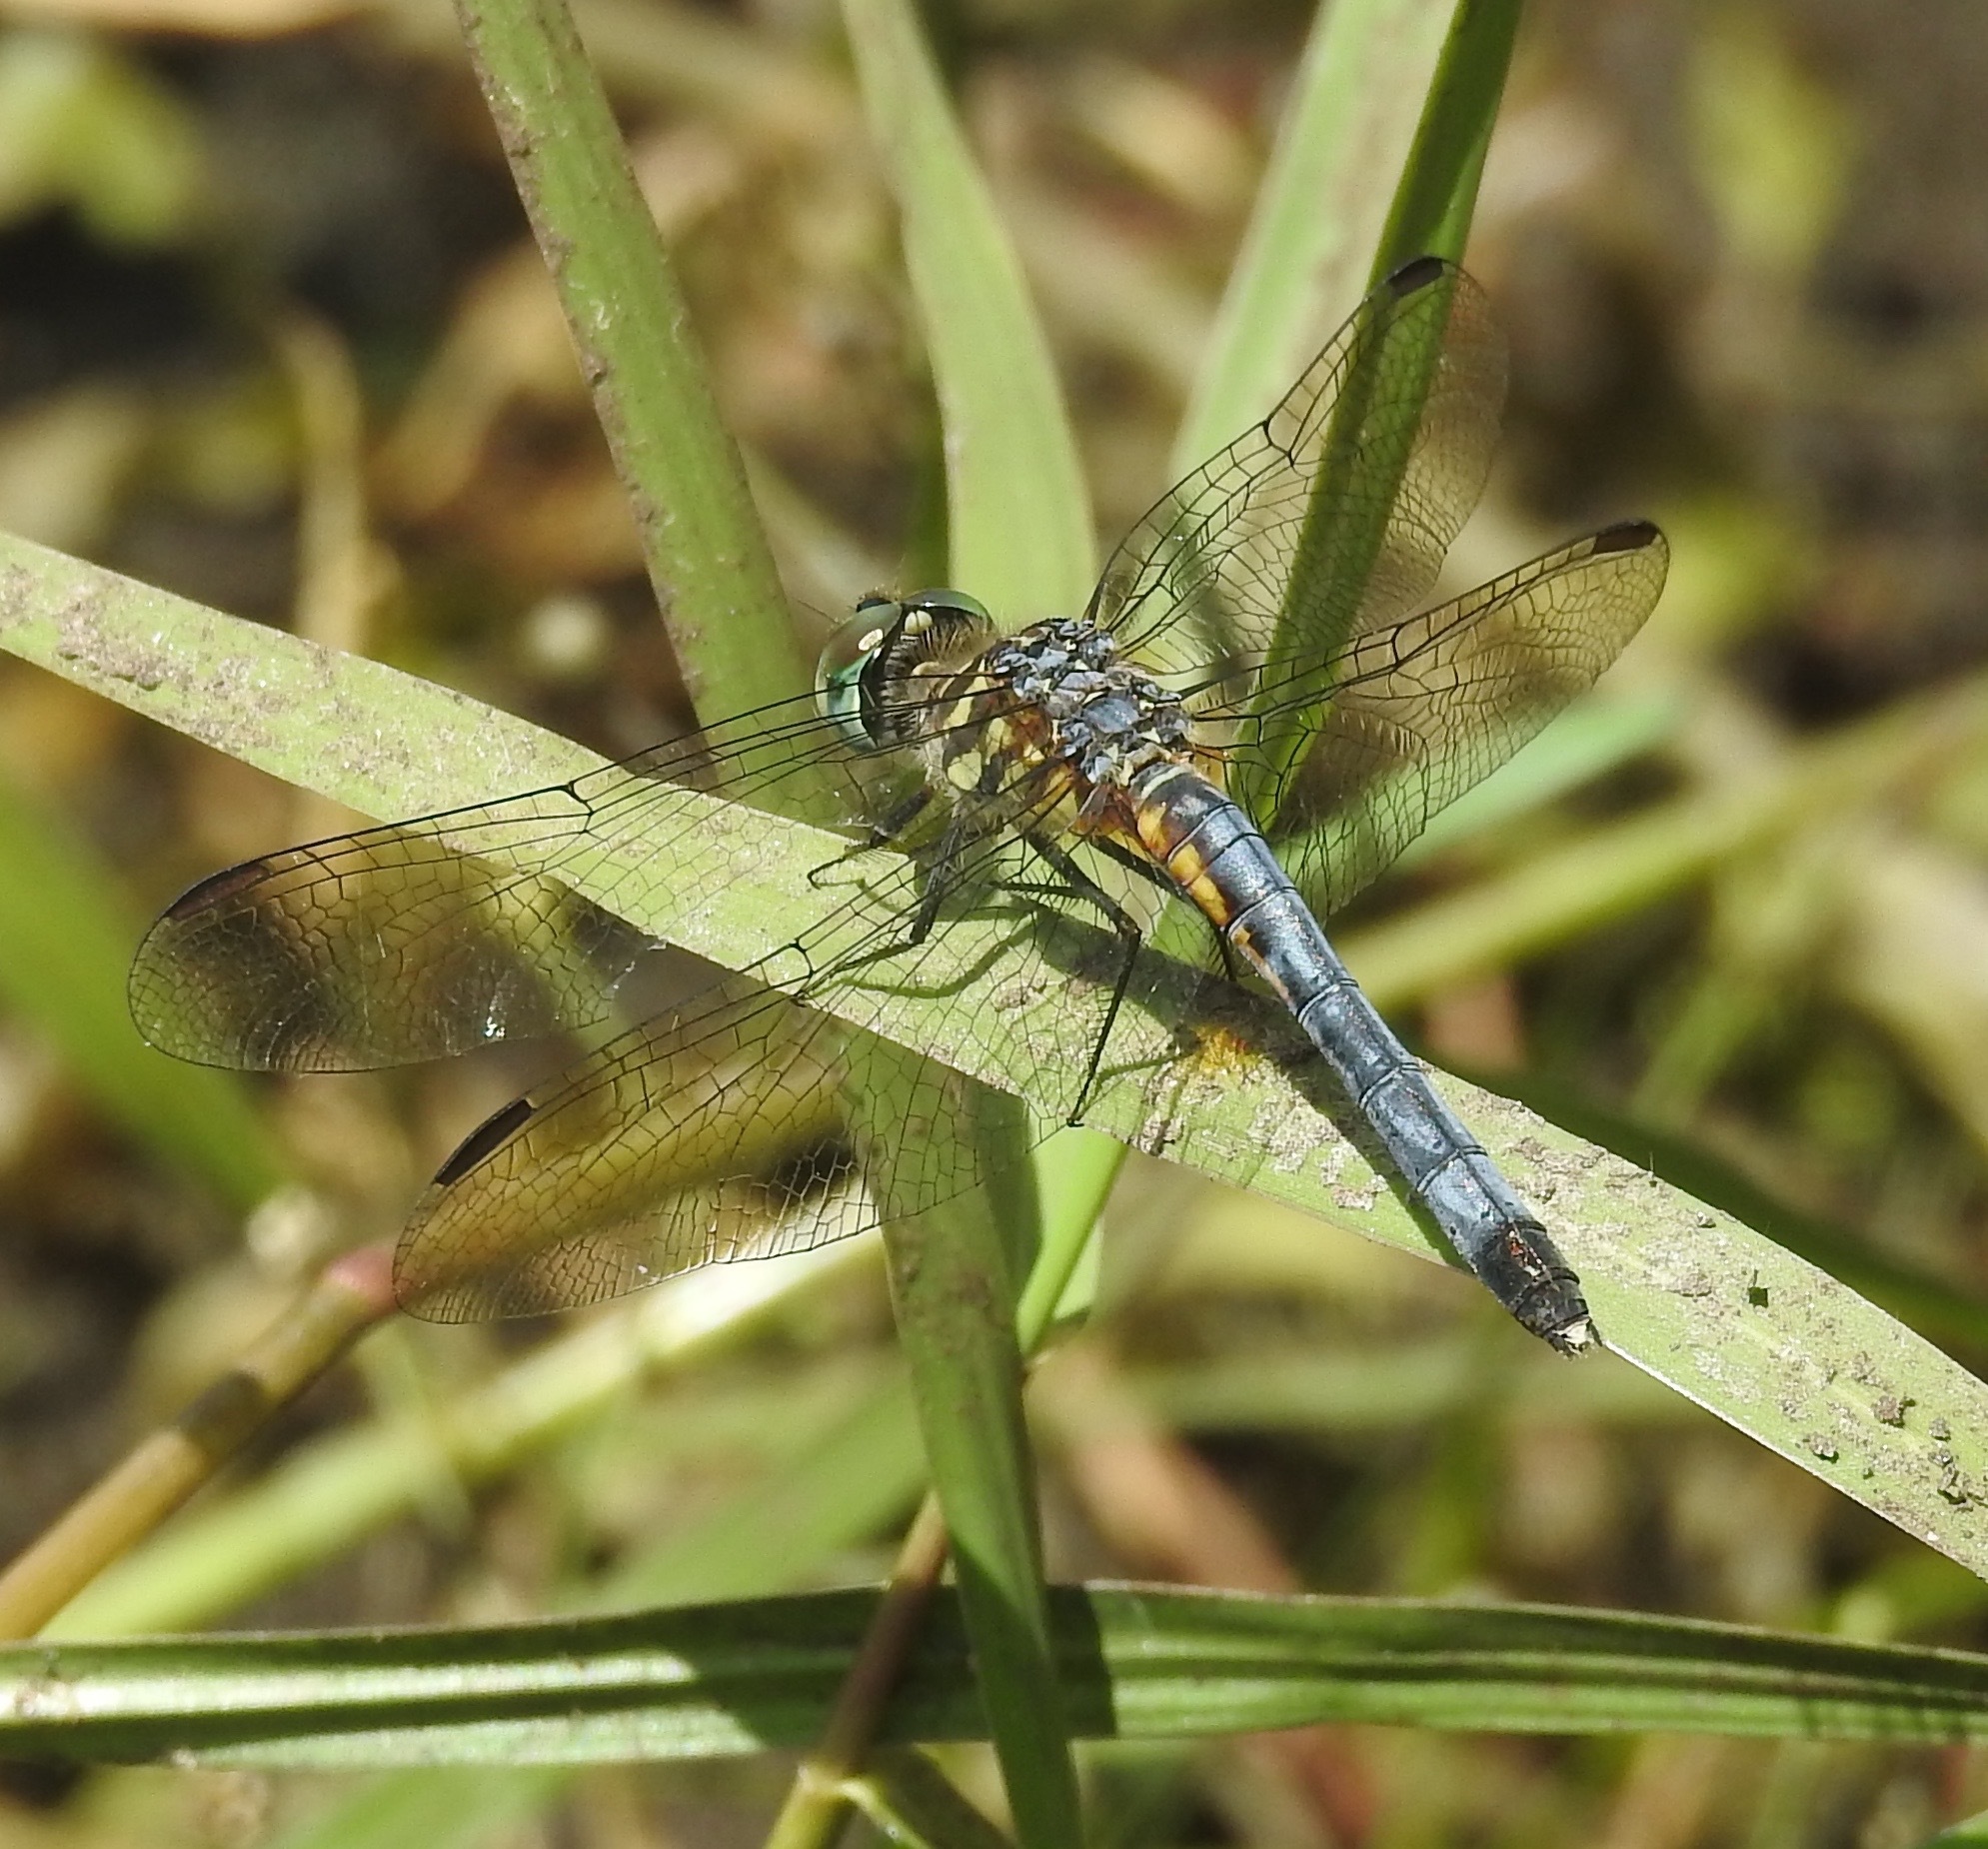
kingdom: Animalia
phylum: Arthropoda
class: Insecta
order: Odonata
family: Libellulidae
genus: Pachydiplax
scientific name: Pachydiplax longipennis
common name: Blue dasher
